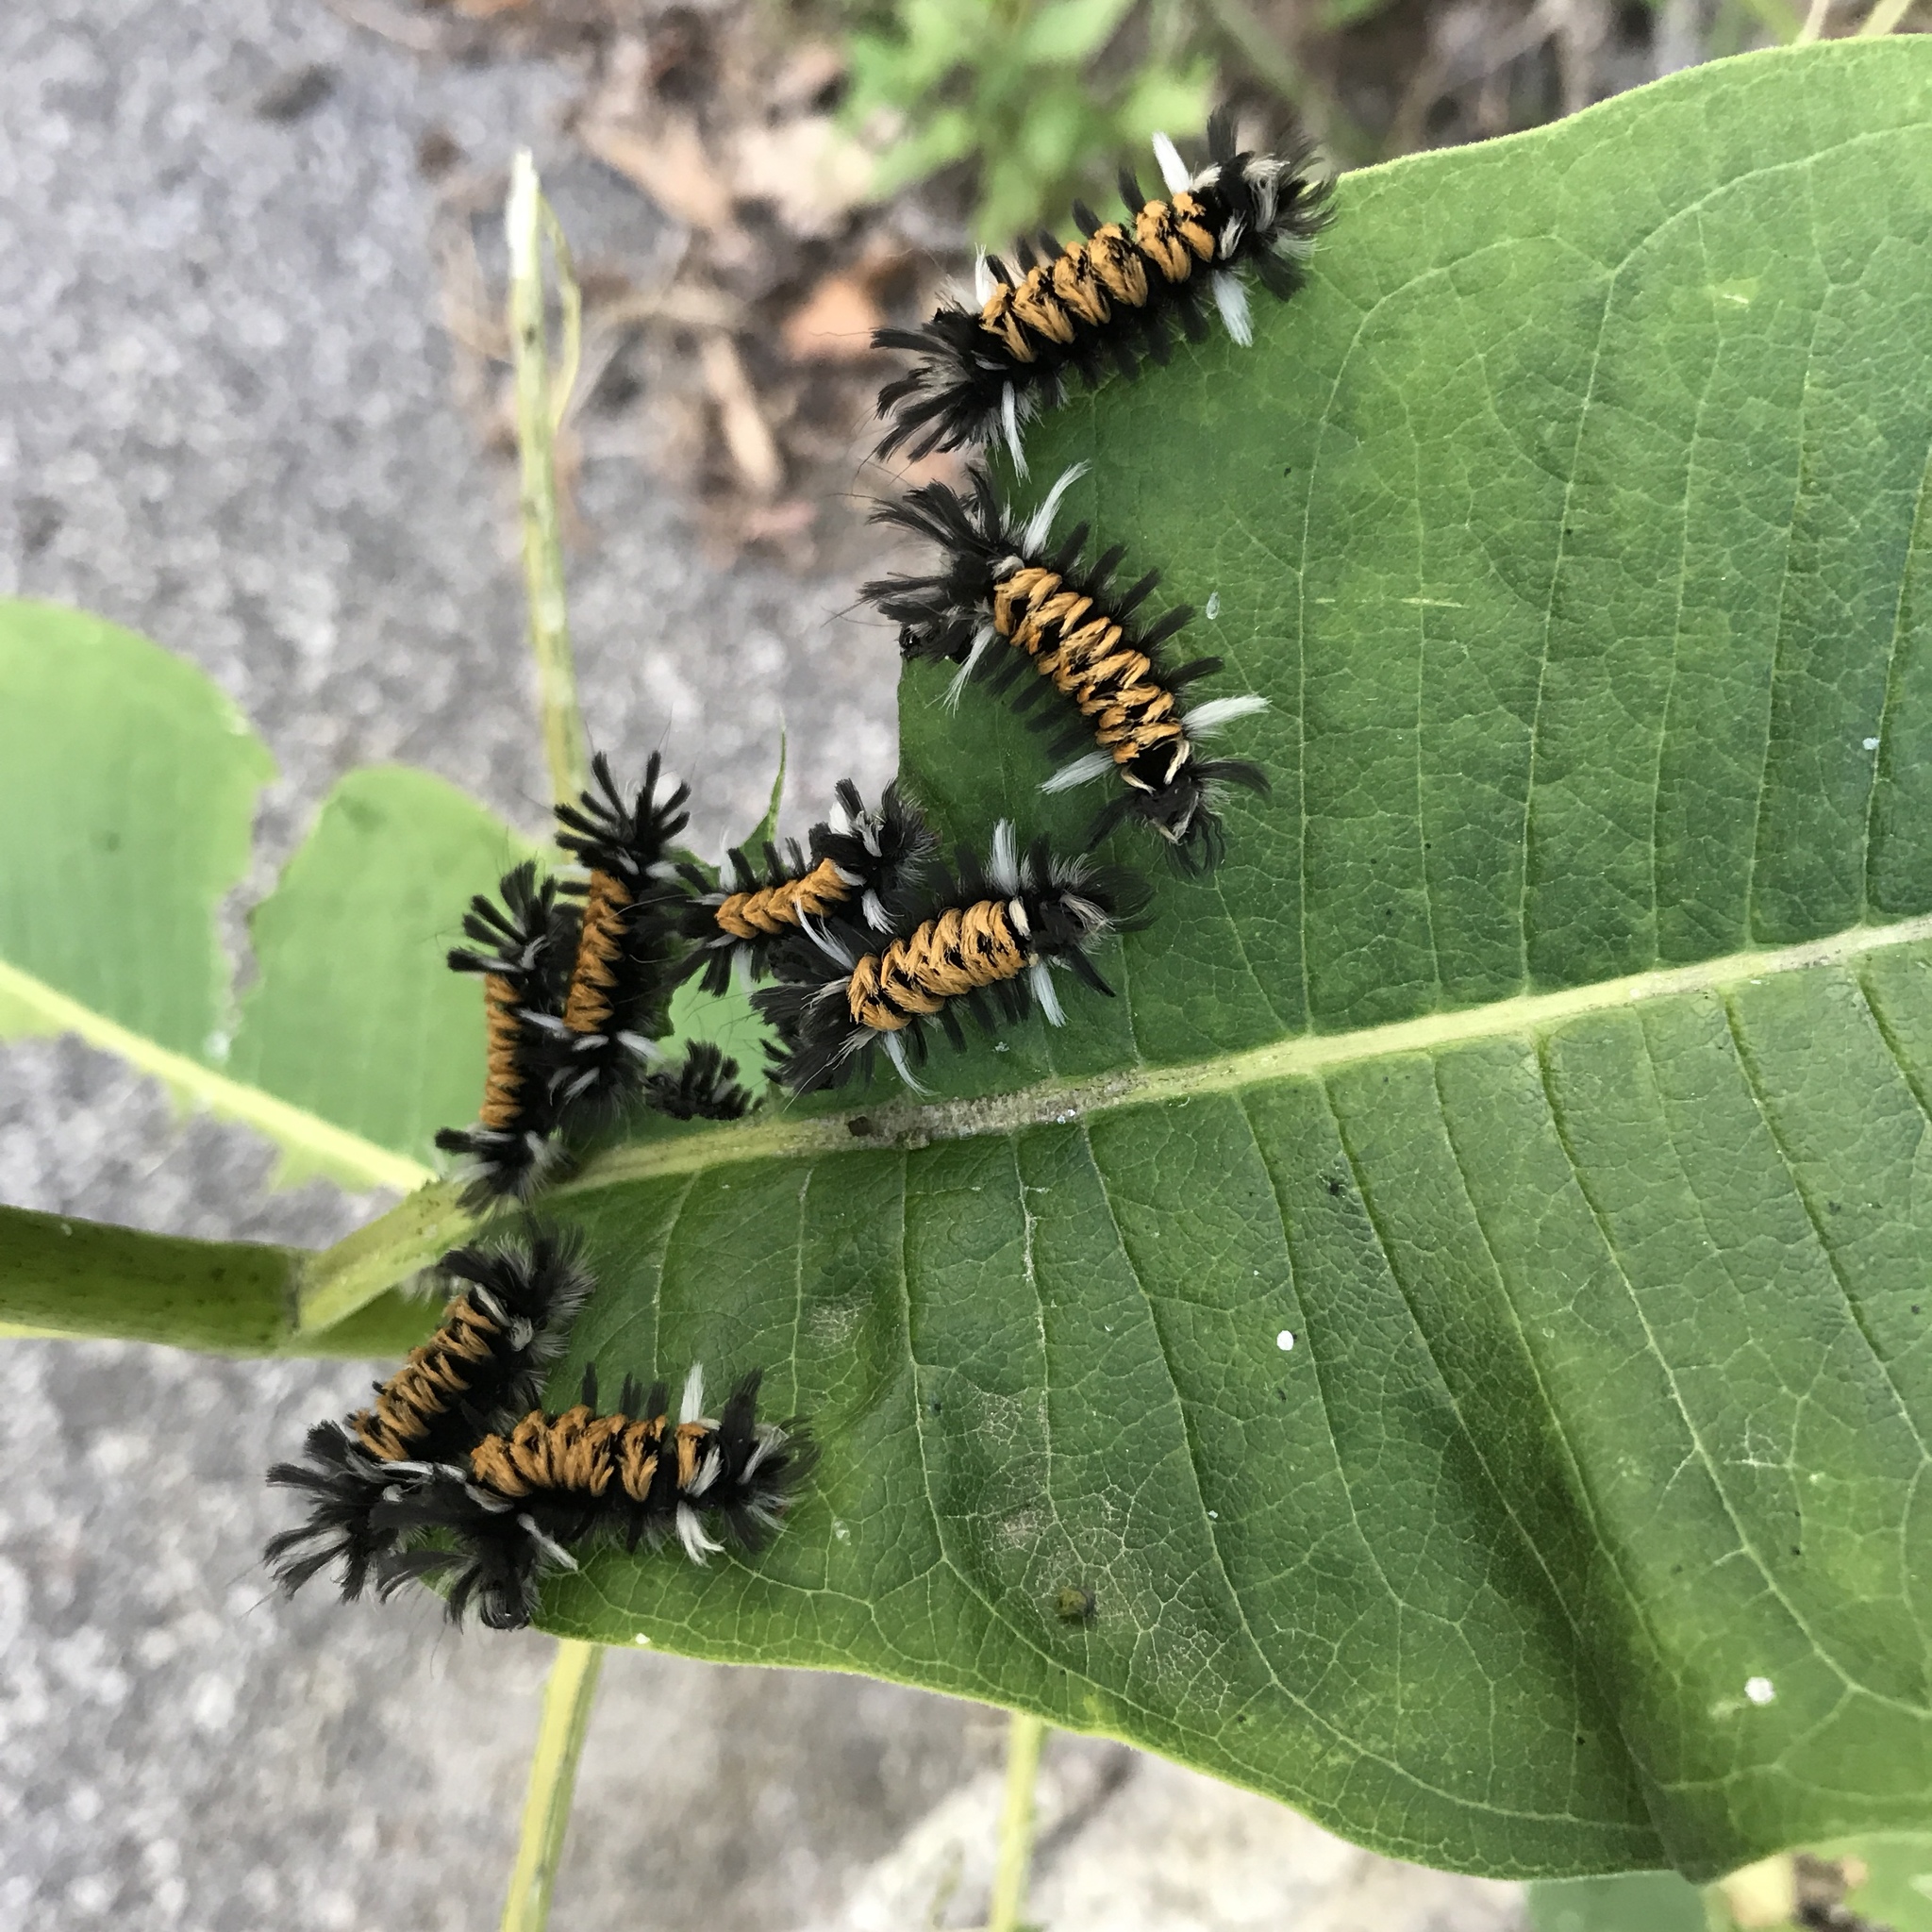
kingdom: Animalia
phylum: Arthropoda
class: Insecta
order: Lepidoptera
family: Erebidae
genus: Euchaetes
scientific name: Euchaetes egle
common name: Milkweed tussock moth
